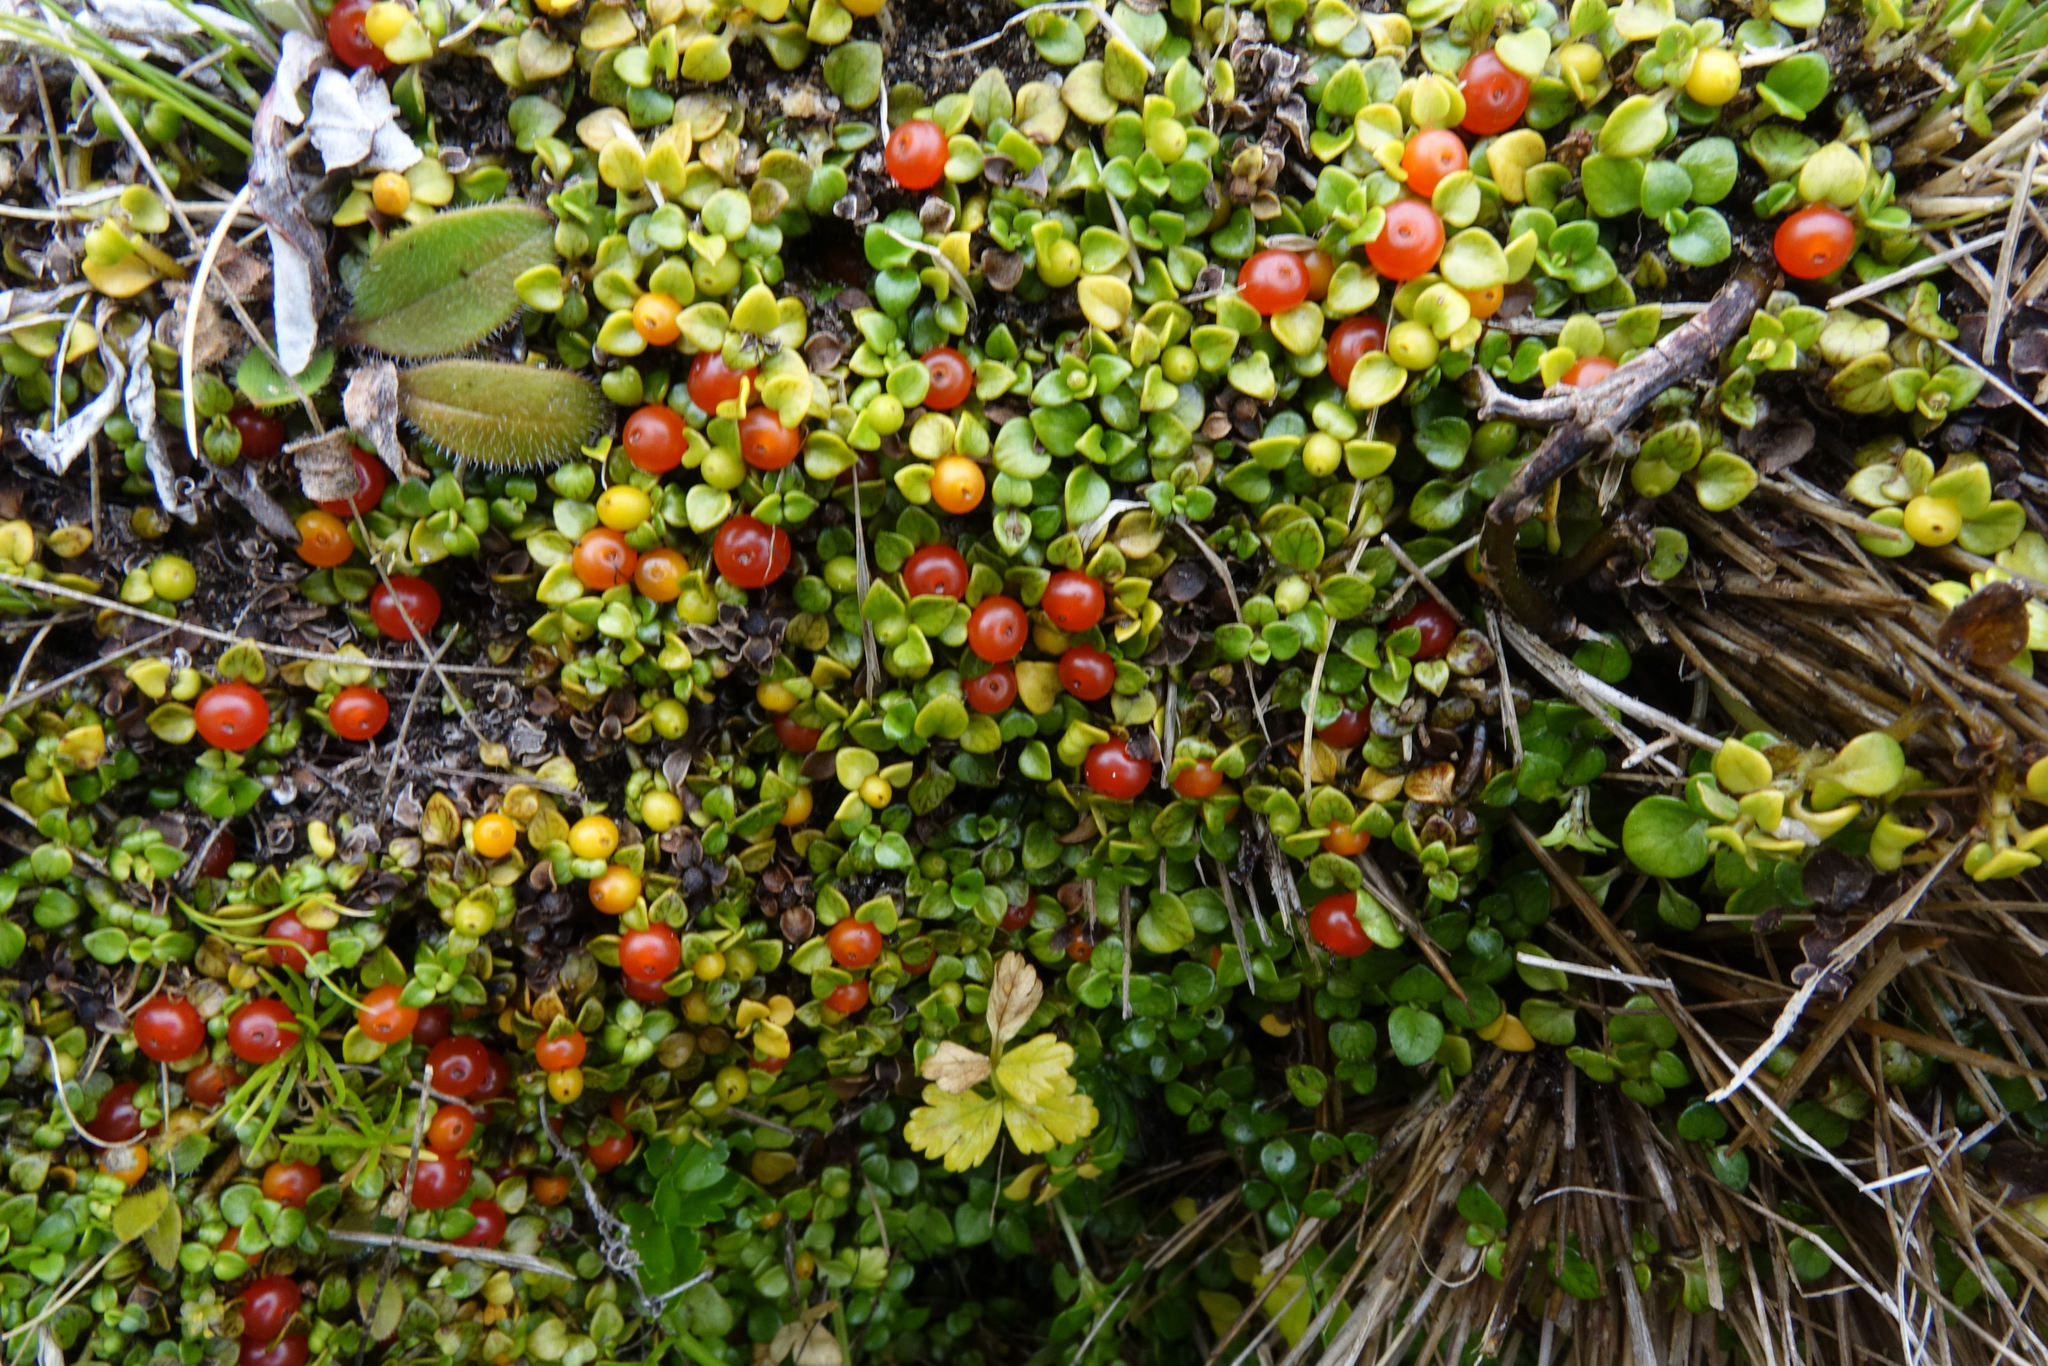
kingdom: Plantae
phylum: Tracheophyta
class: Magnoliopsida
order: Gentianales
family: Rubiaceae
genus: Nertera
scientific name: Nertera granadensis
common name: Beadplant
